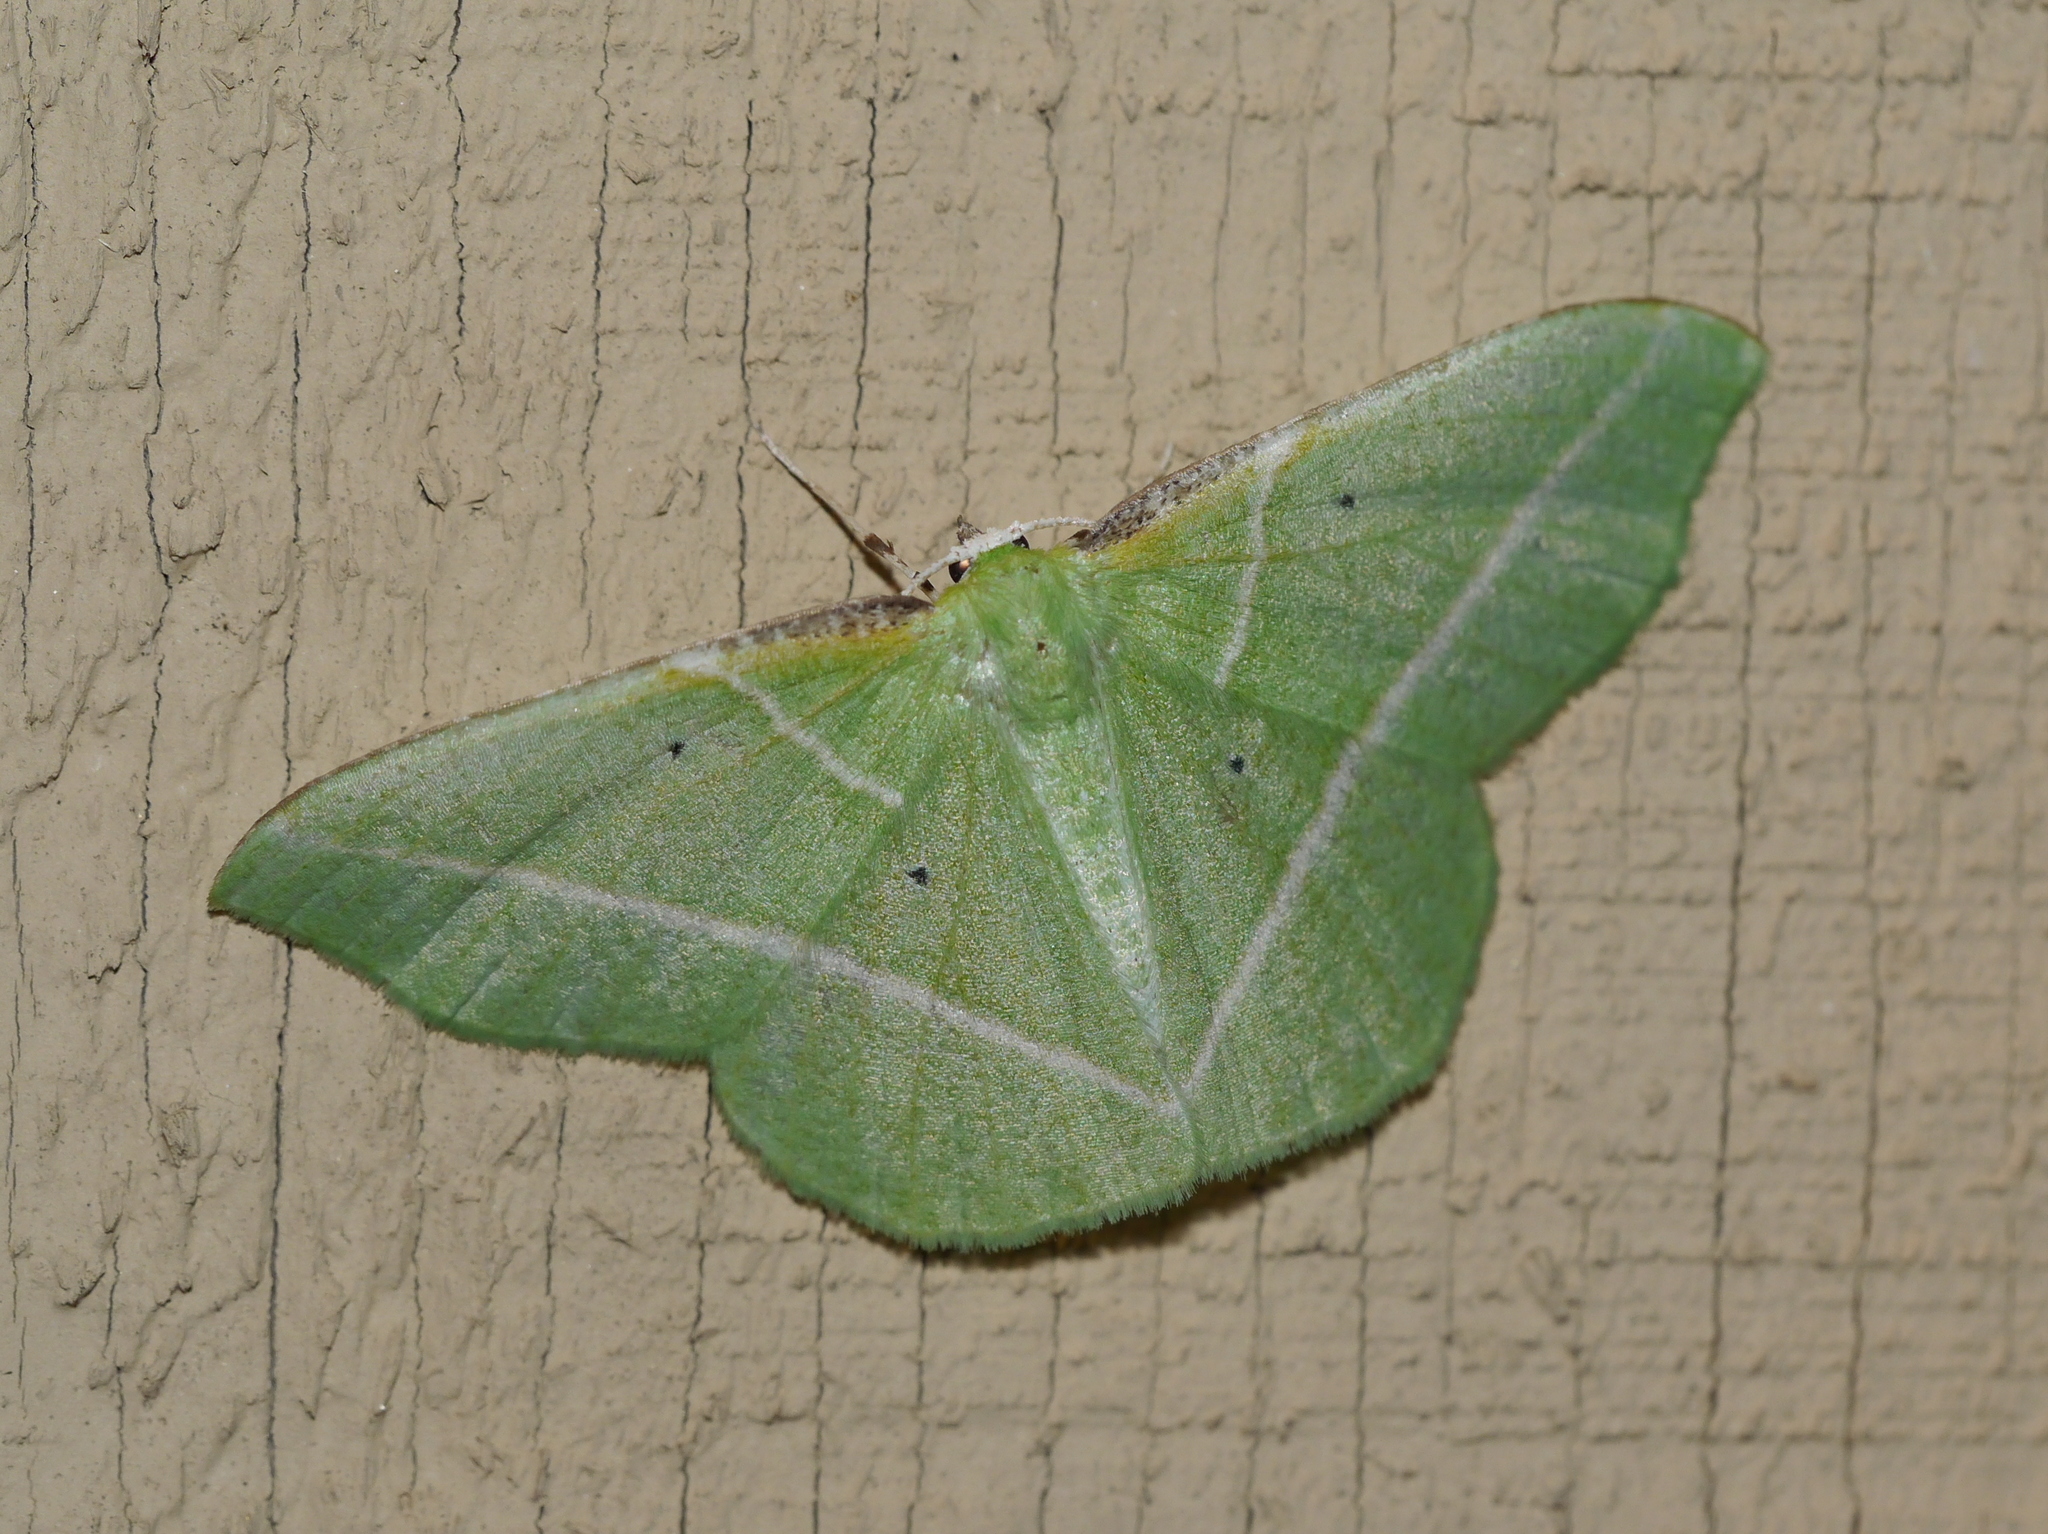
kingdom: Animalia
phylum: Arthropoda
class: Insecta
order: Lepidoptera
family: Geometridae
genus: Dichorda
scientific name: Dichorda illustraria
